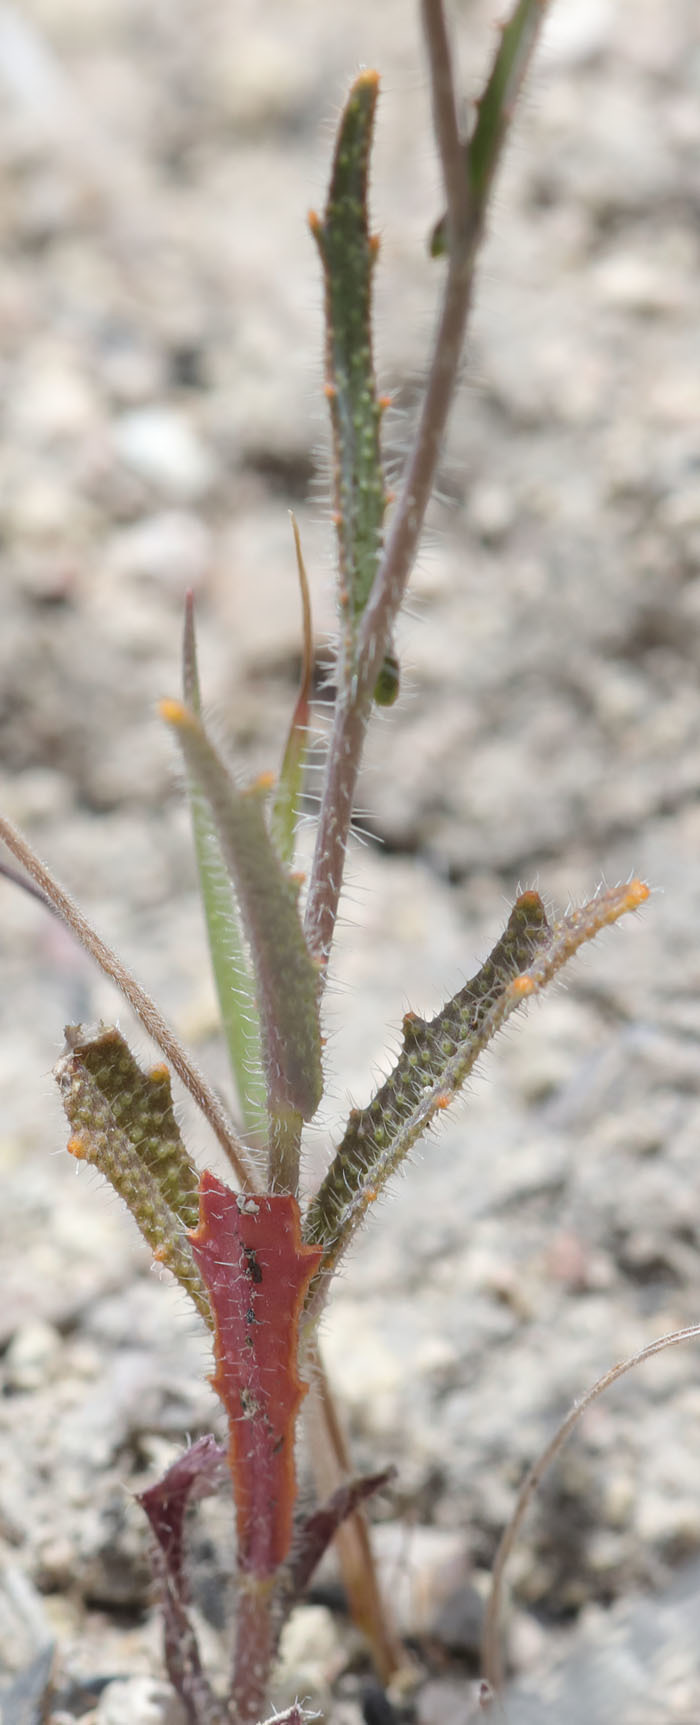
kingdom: Plantae
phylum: Tracheophyta
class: Magnoliopsida
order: Brassicales
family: Brassicaceae
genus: Streptanthus
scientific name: Streptanthus glandulosus
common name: Jewel-flower
